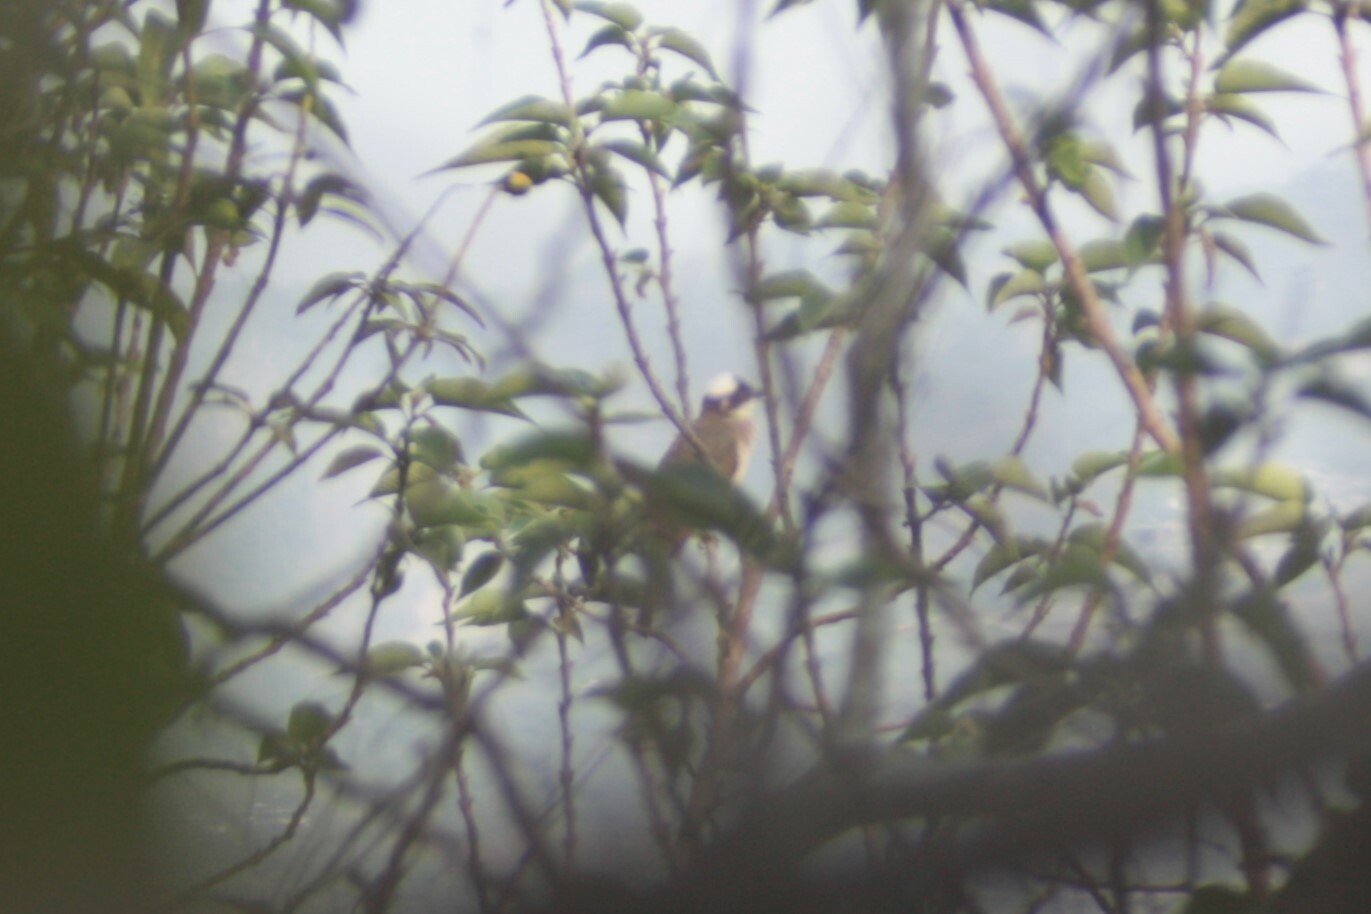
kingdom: Animalia
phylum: Chordata
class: Aves
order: Passeriformes
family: Pycnonotidae
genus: Pycnonotus
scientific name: Pycnonotus sinensis
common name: Light-vented bulbul
